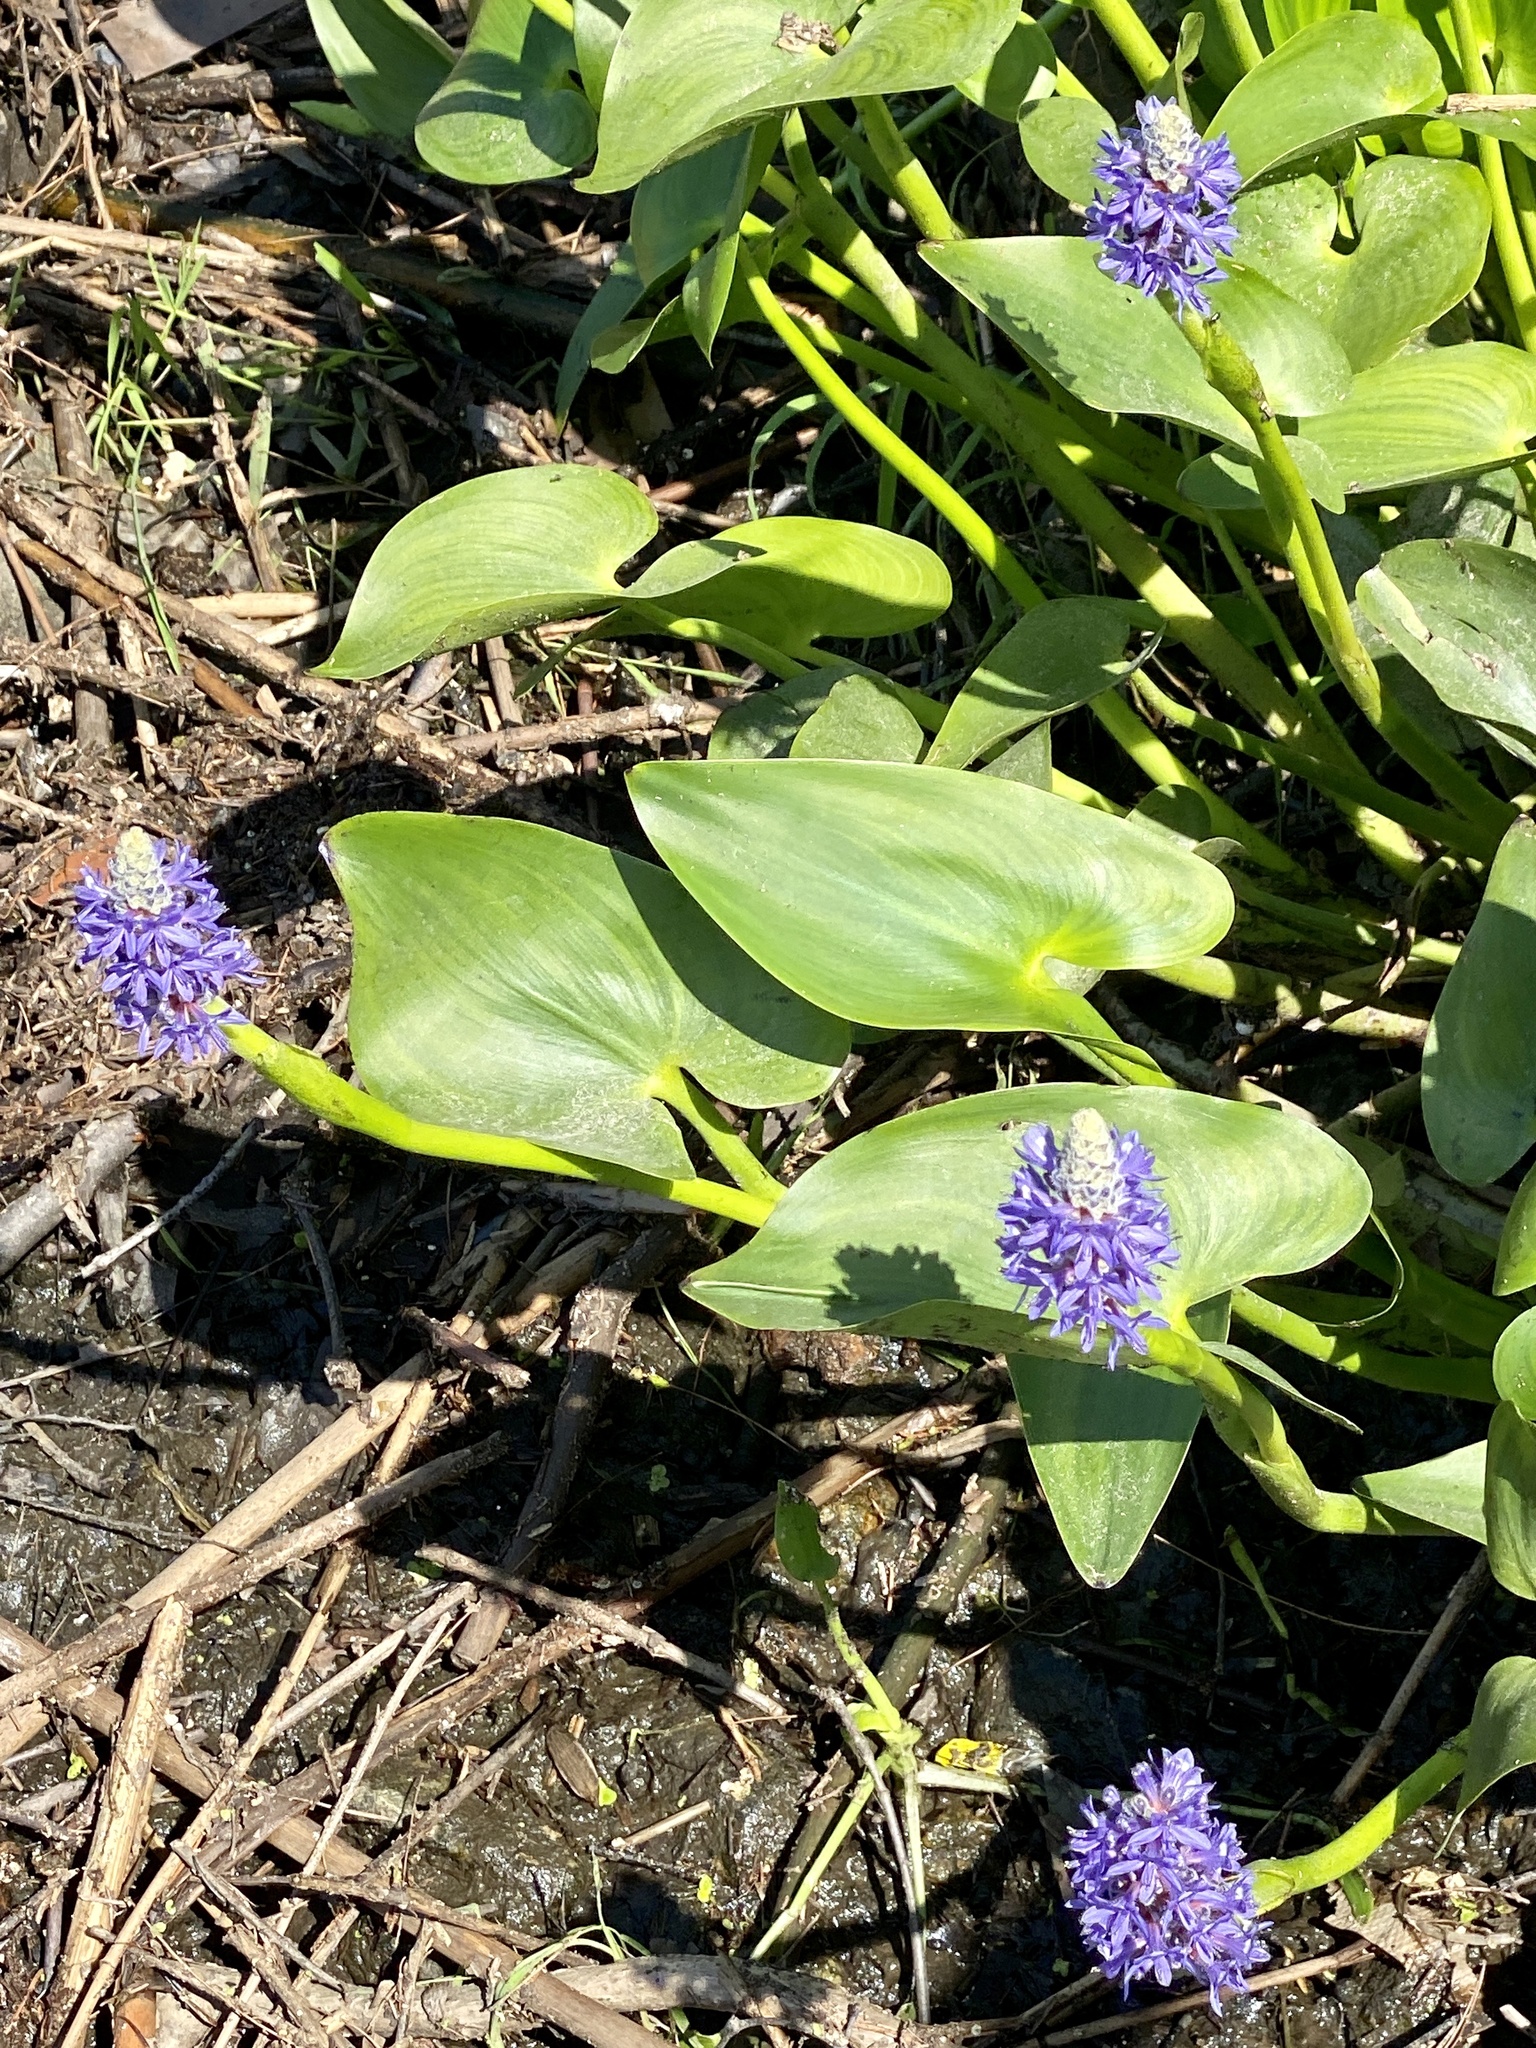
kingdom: Plantae
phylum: Tracheophyta
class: Liliopsida
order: Commelinales
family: Pontederiaceae
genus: Pontederia
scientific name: Pontederia cordata
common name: Pickerelweed
